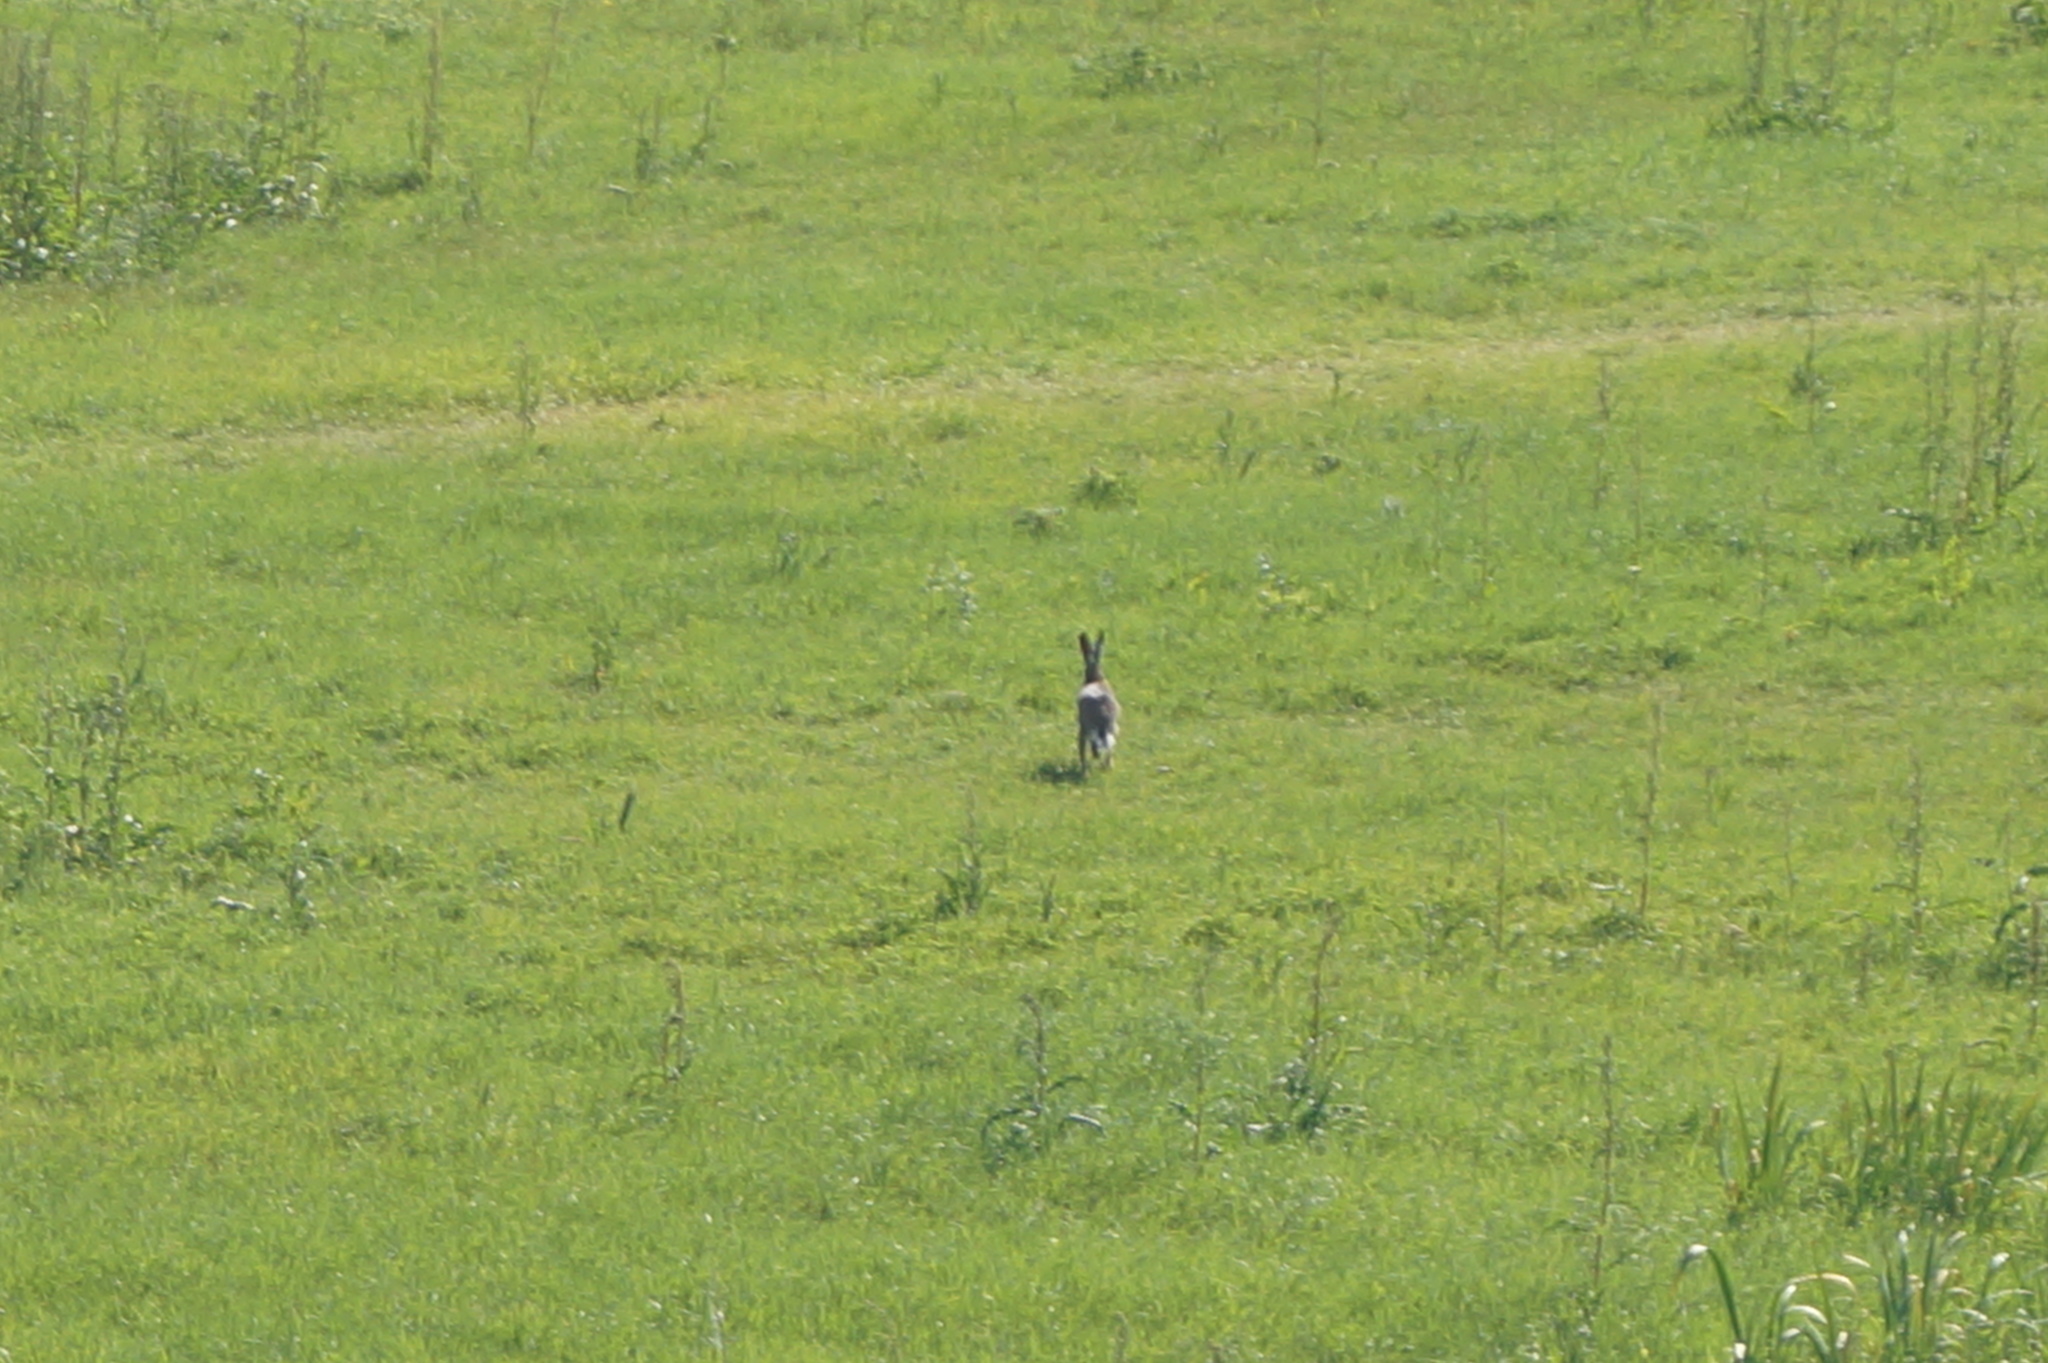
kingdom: Animalia
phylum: Chordata
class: Mammalia
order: Lagomorpha
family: Leporidae
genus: Lepus
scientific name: Lepus europaeus
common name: European hare
